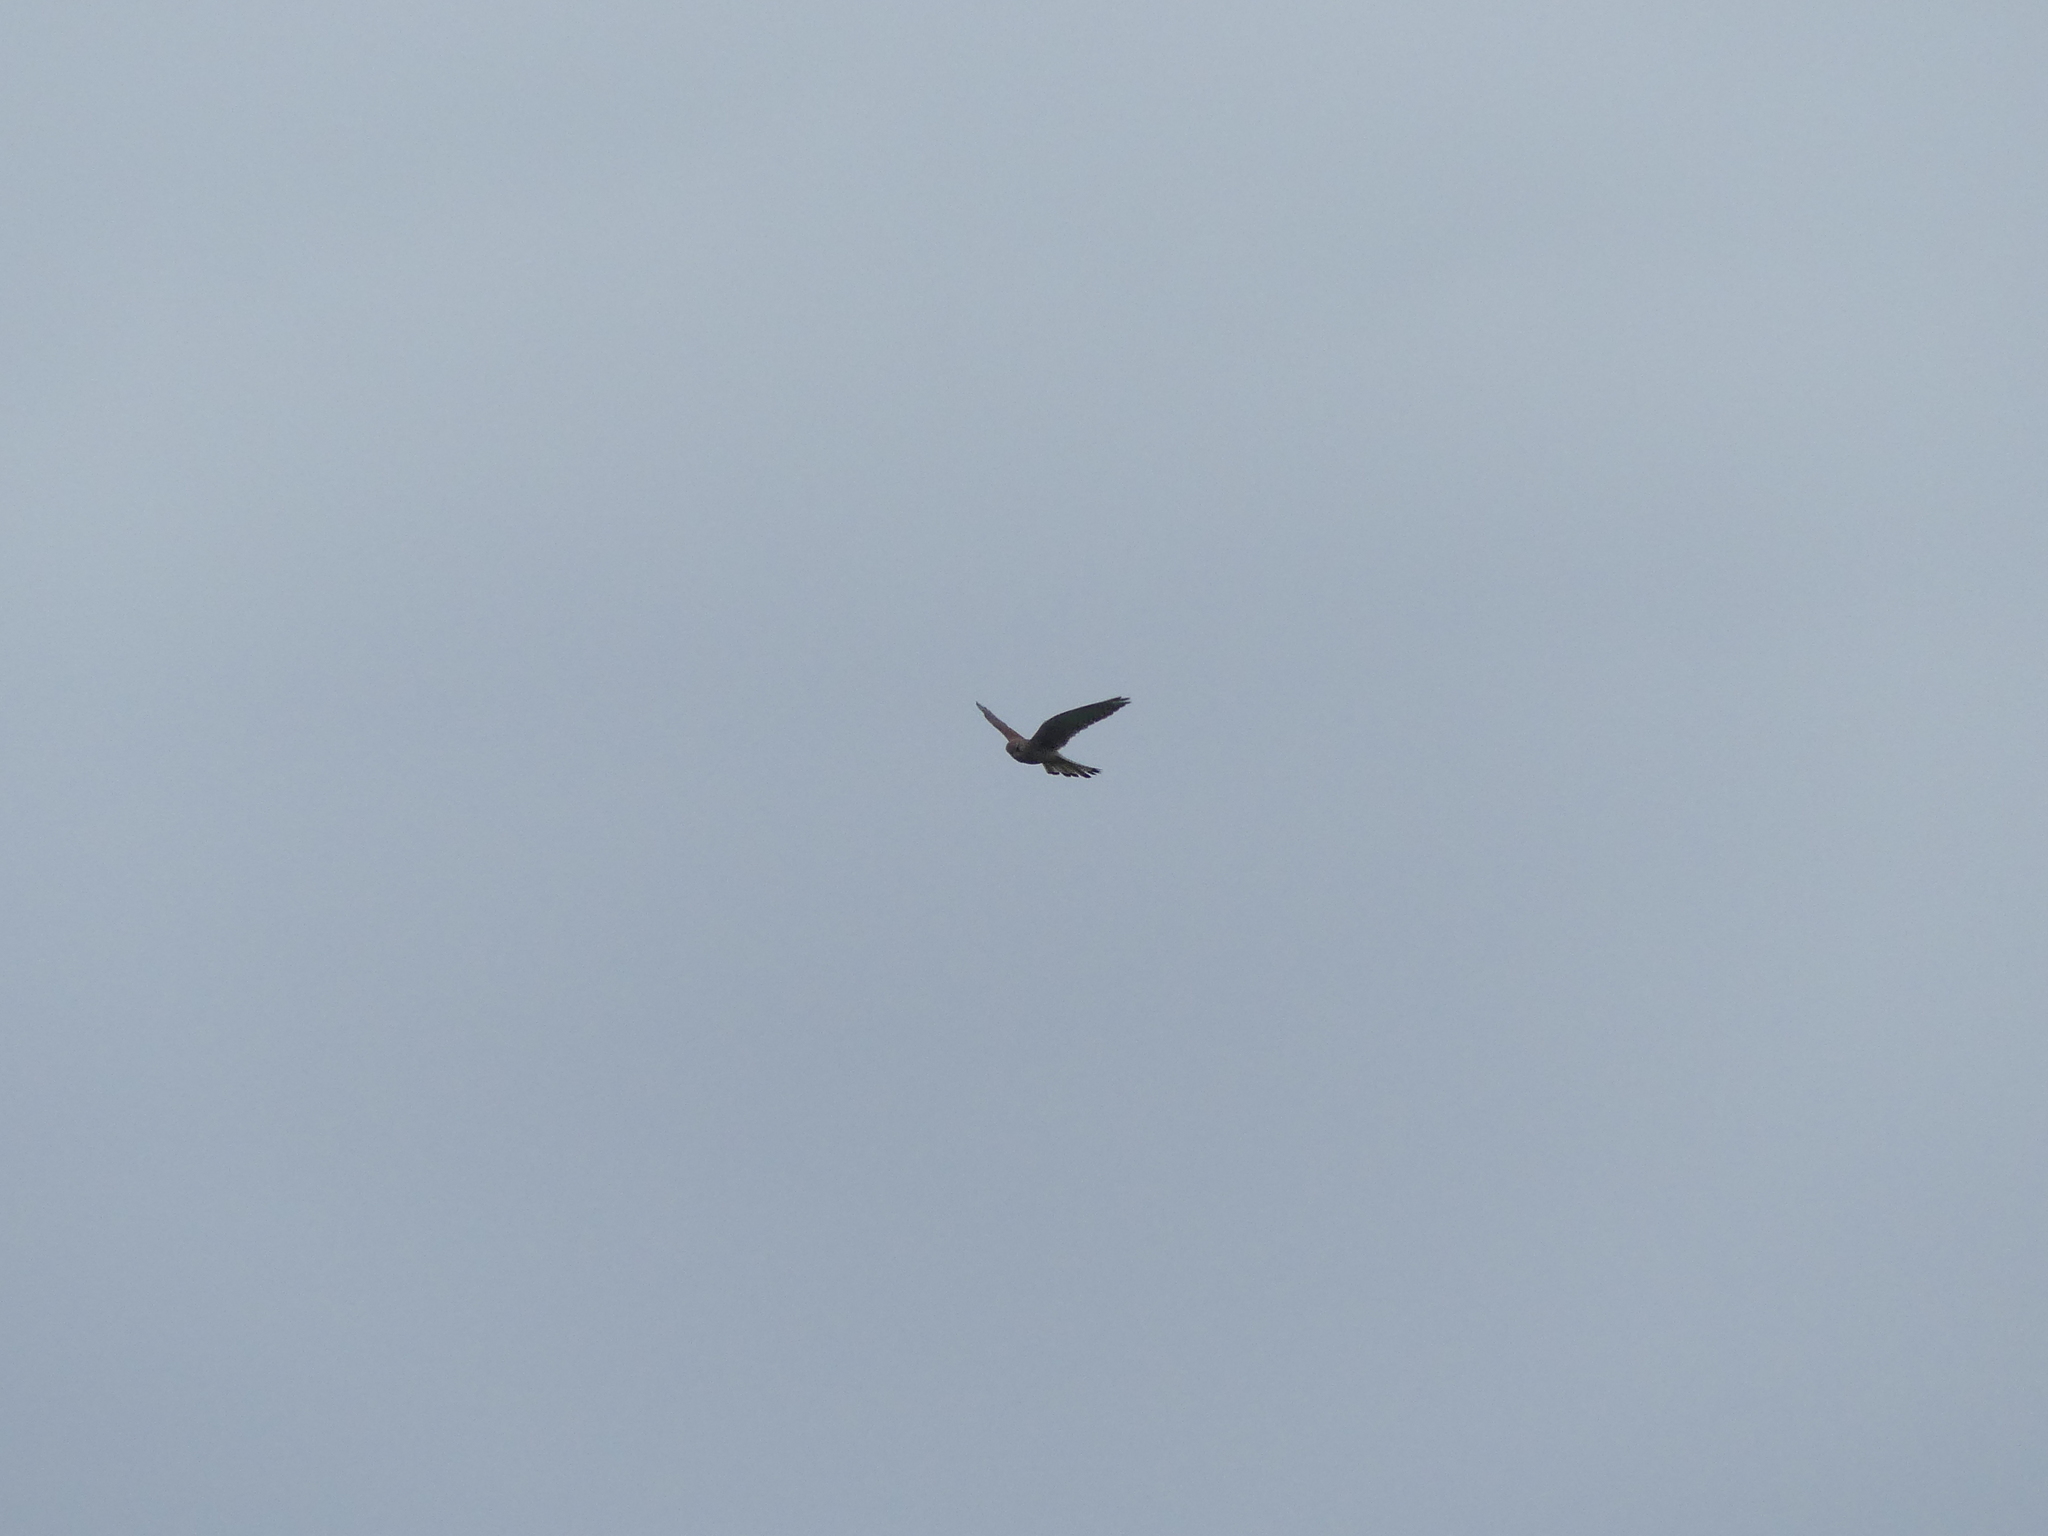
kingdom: Animalia
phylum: Chordata
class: Aves
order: Falconiformes
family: Falconidae
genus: Falco
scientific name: Falco tinnunculus
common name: Common kestrel
